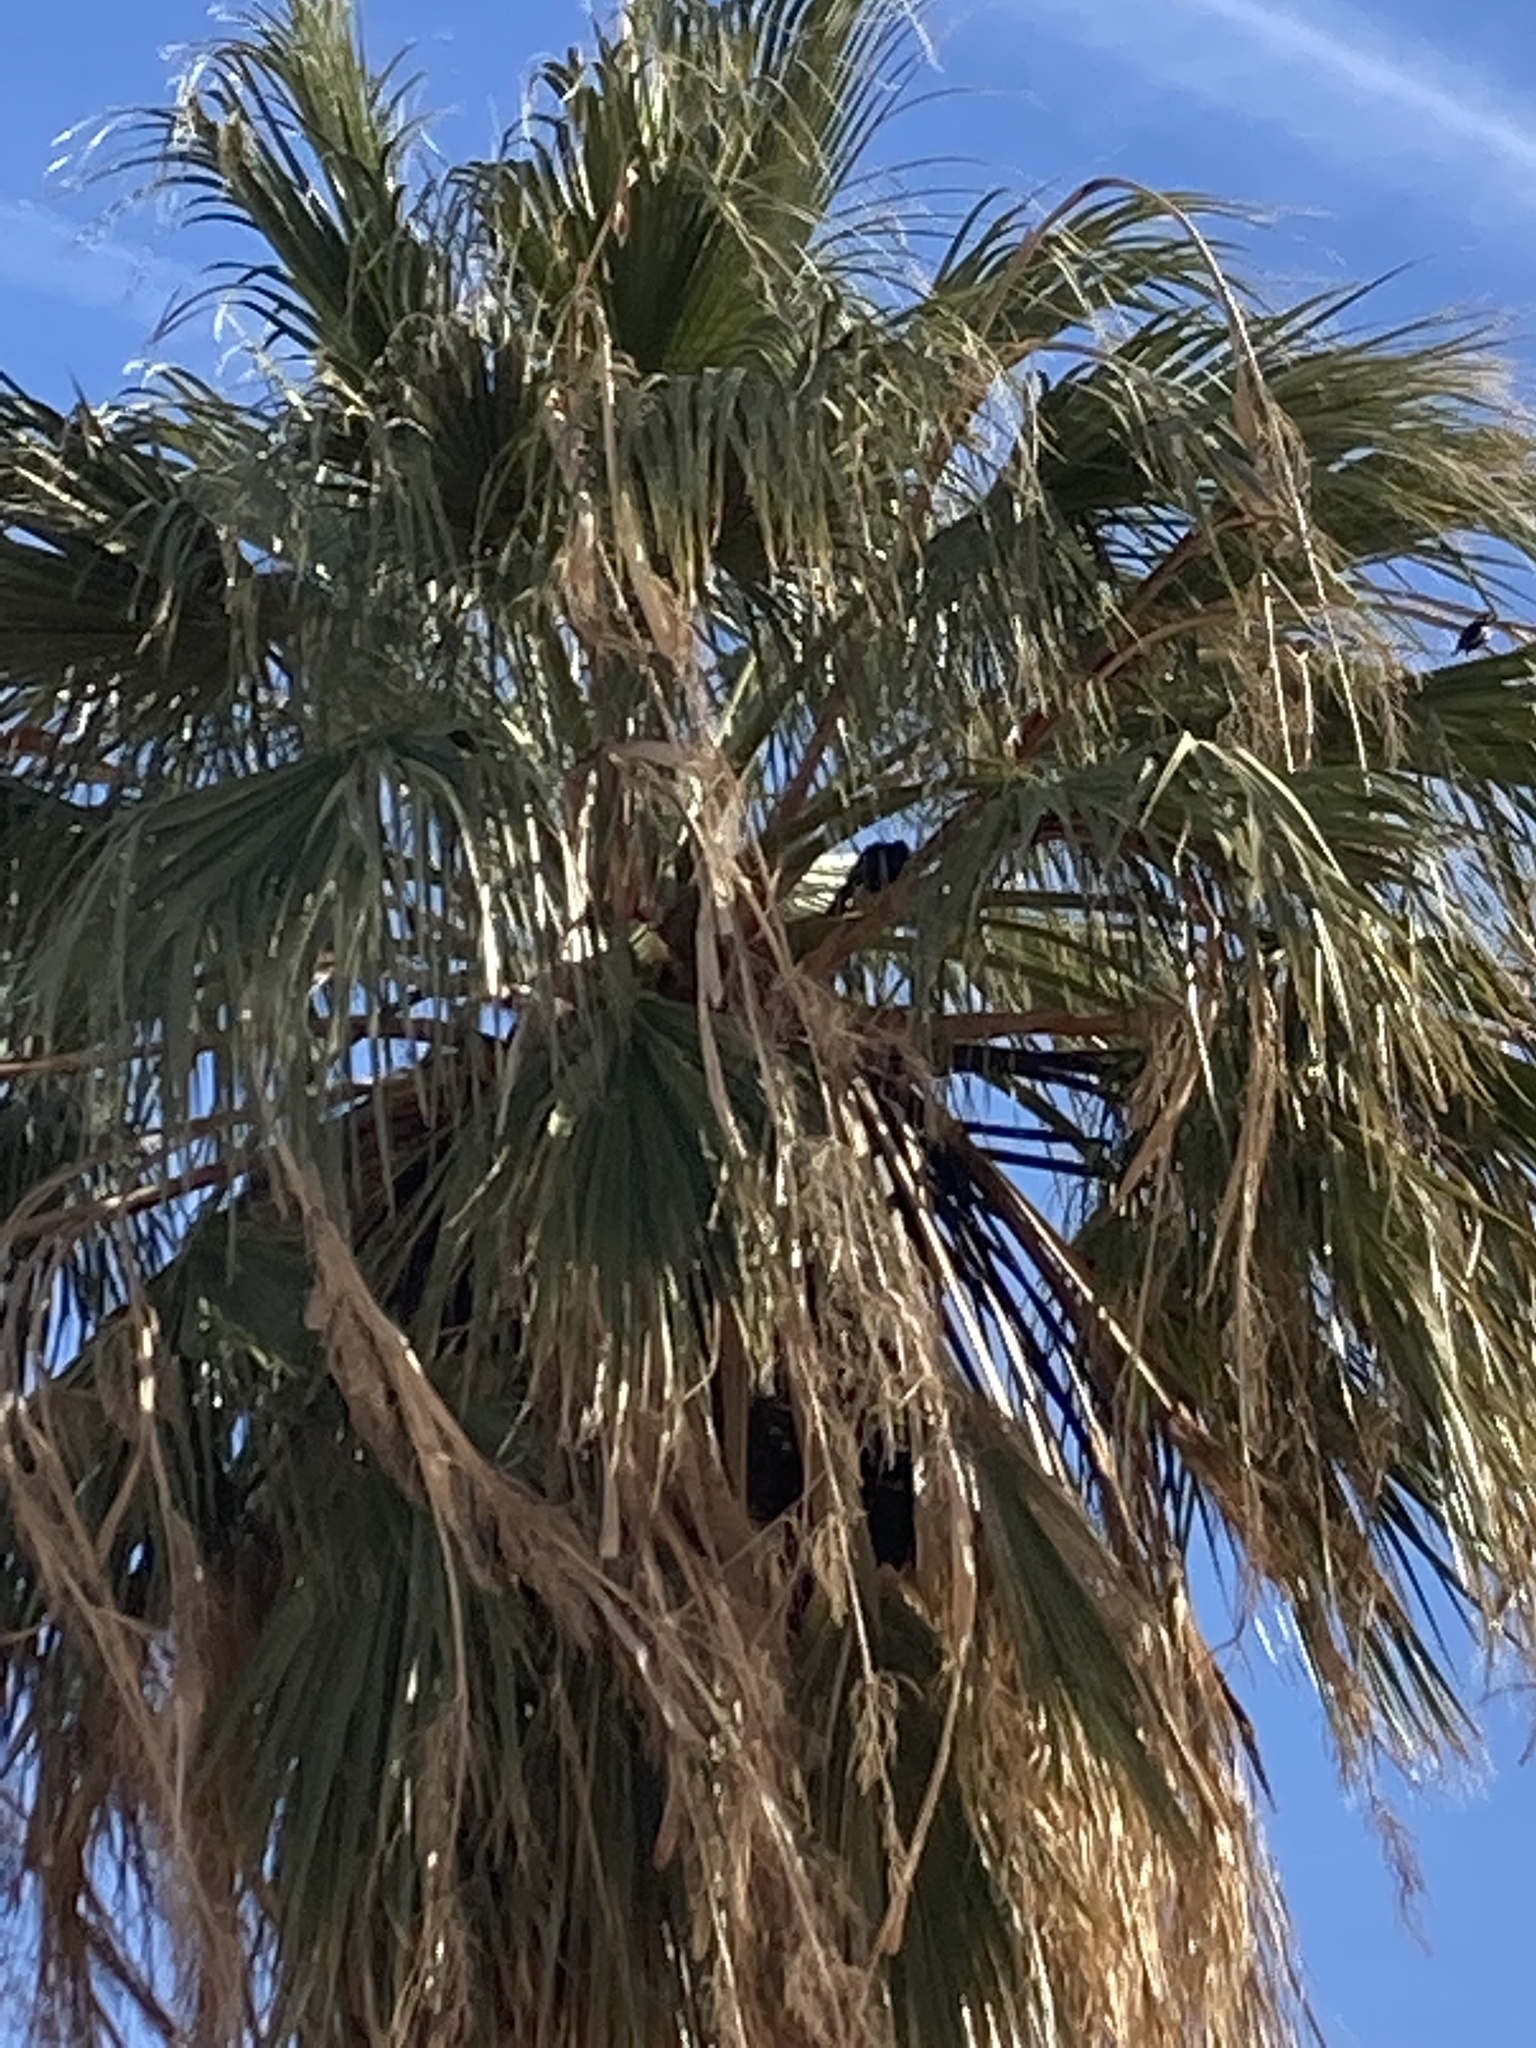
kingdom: Animalia
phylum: Chordata
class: Aves
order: Passeriformes
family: Icteridae
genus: Quiscalus
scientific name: Quiscalus mexicanus
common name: Great-tailed grackle
